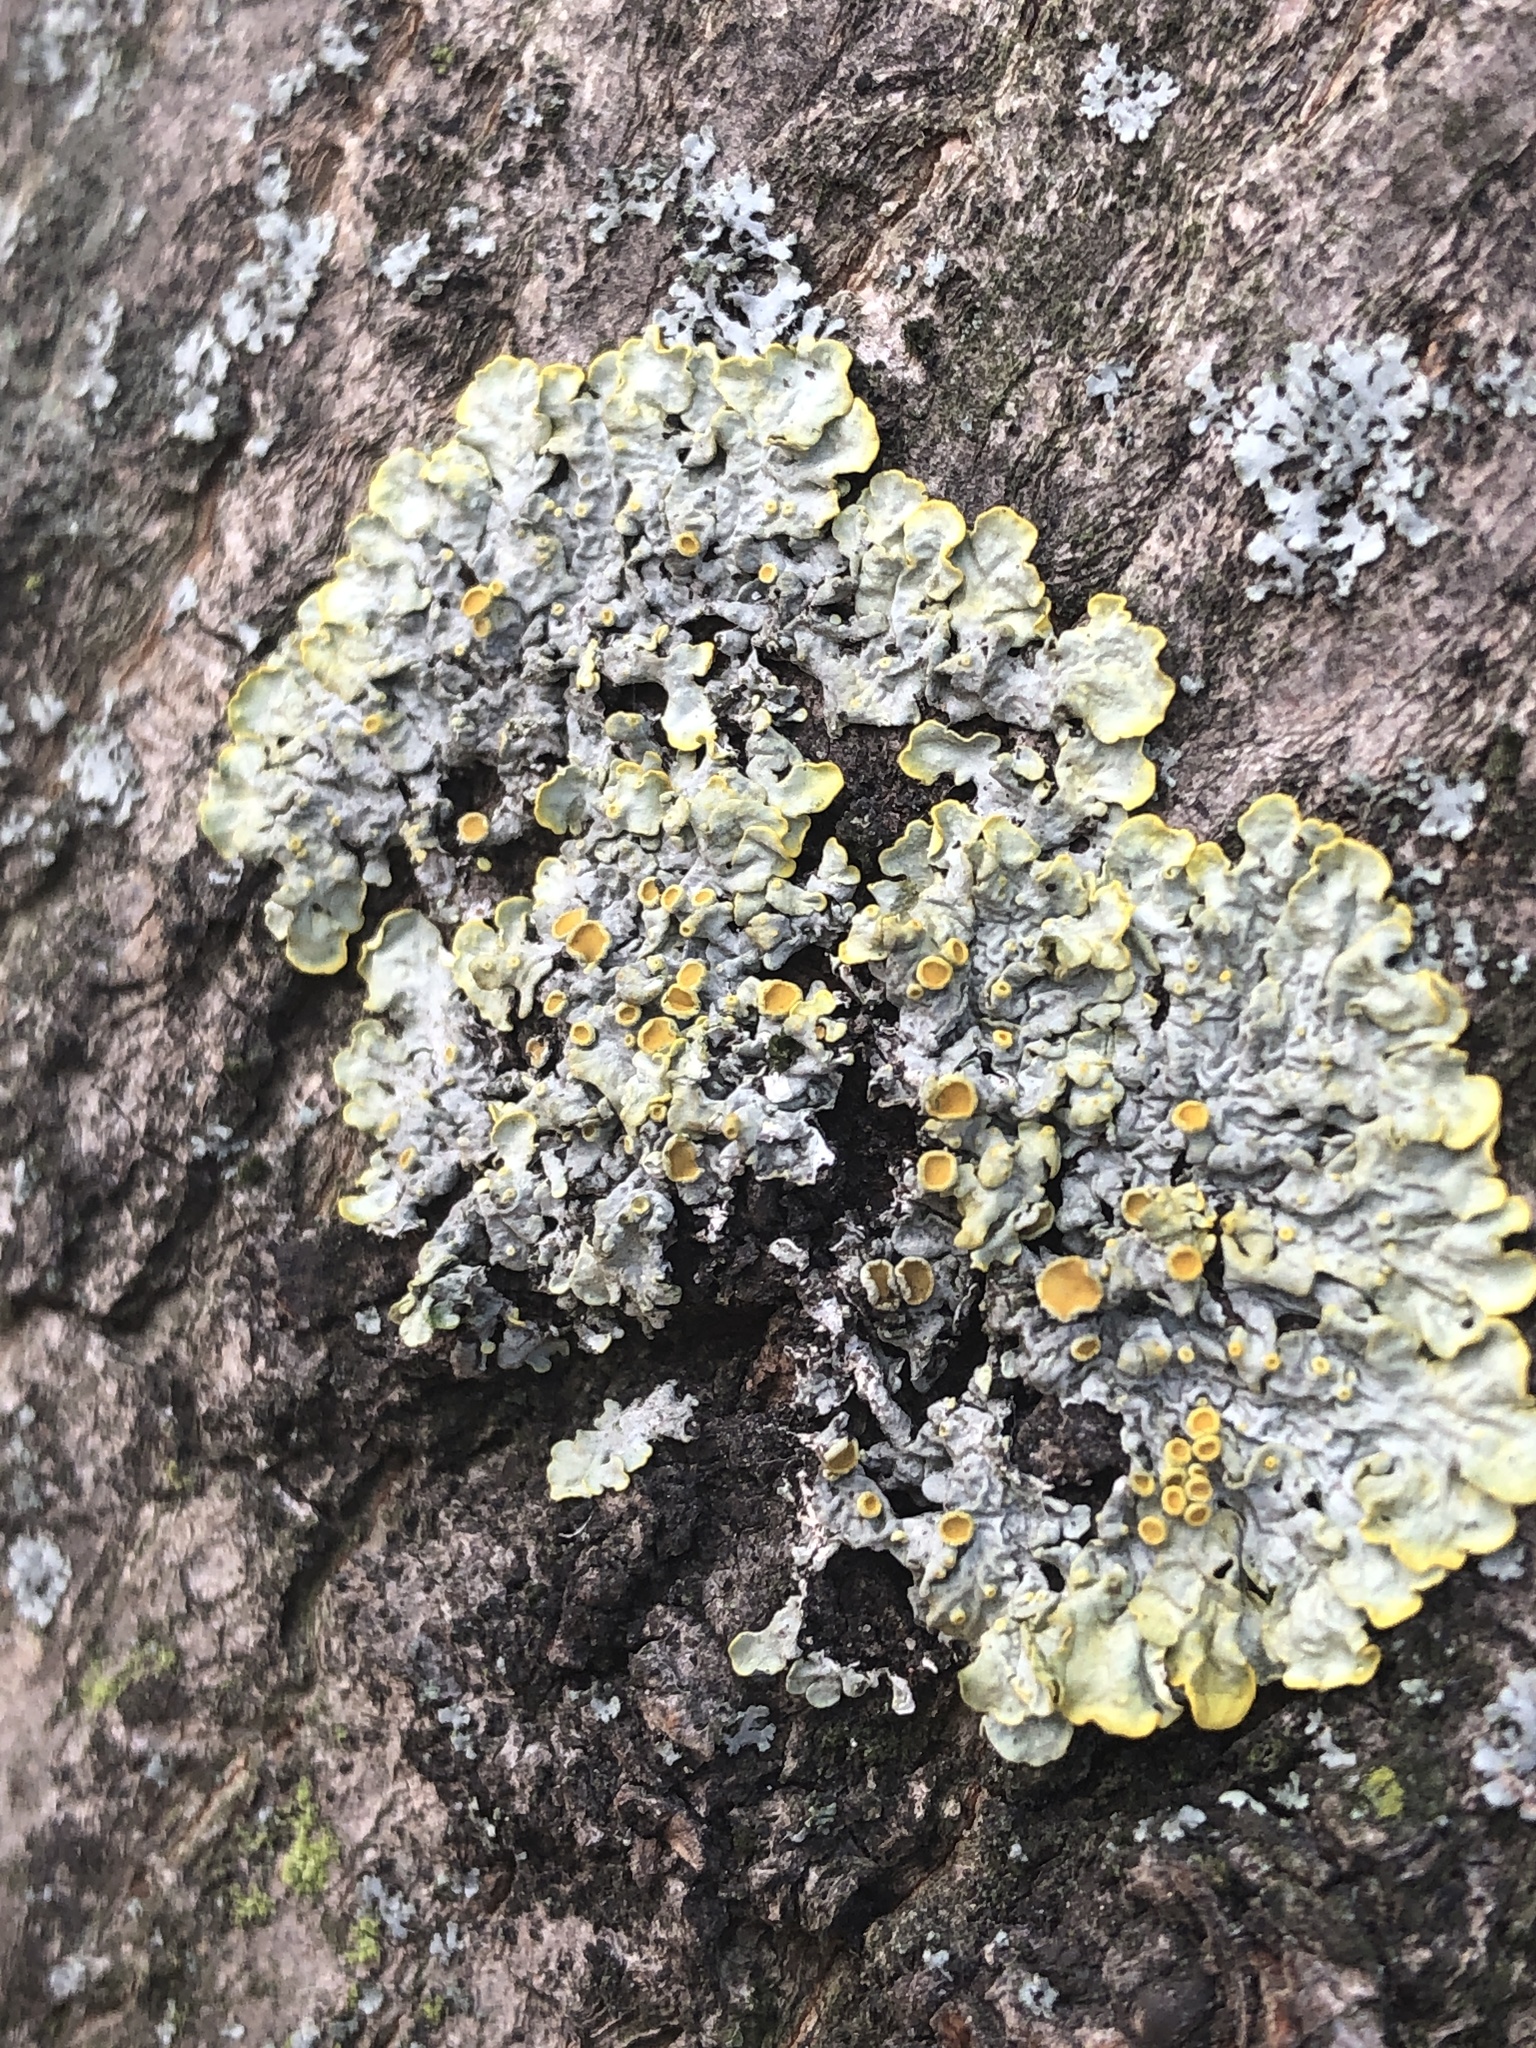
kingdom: Fungi
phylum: Ascomycota
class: Lecanoromycetes
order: Teloschistales
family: Teloschistaceae
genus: Xanthoria
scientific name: Xanthoria parietina
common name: Common orange lichen
